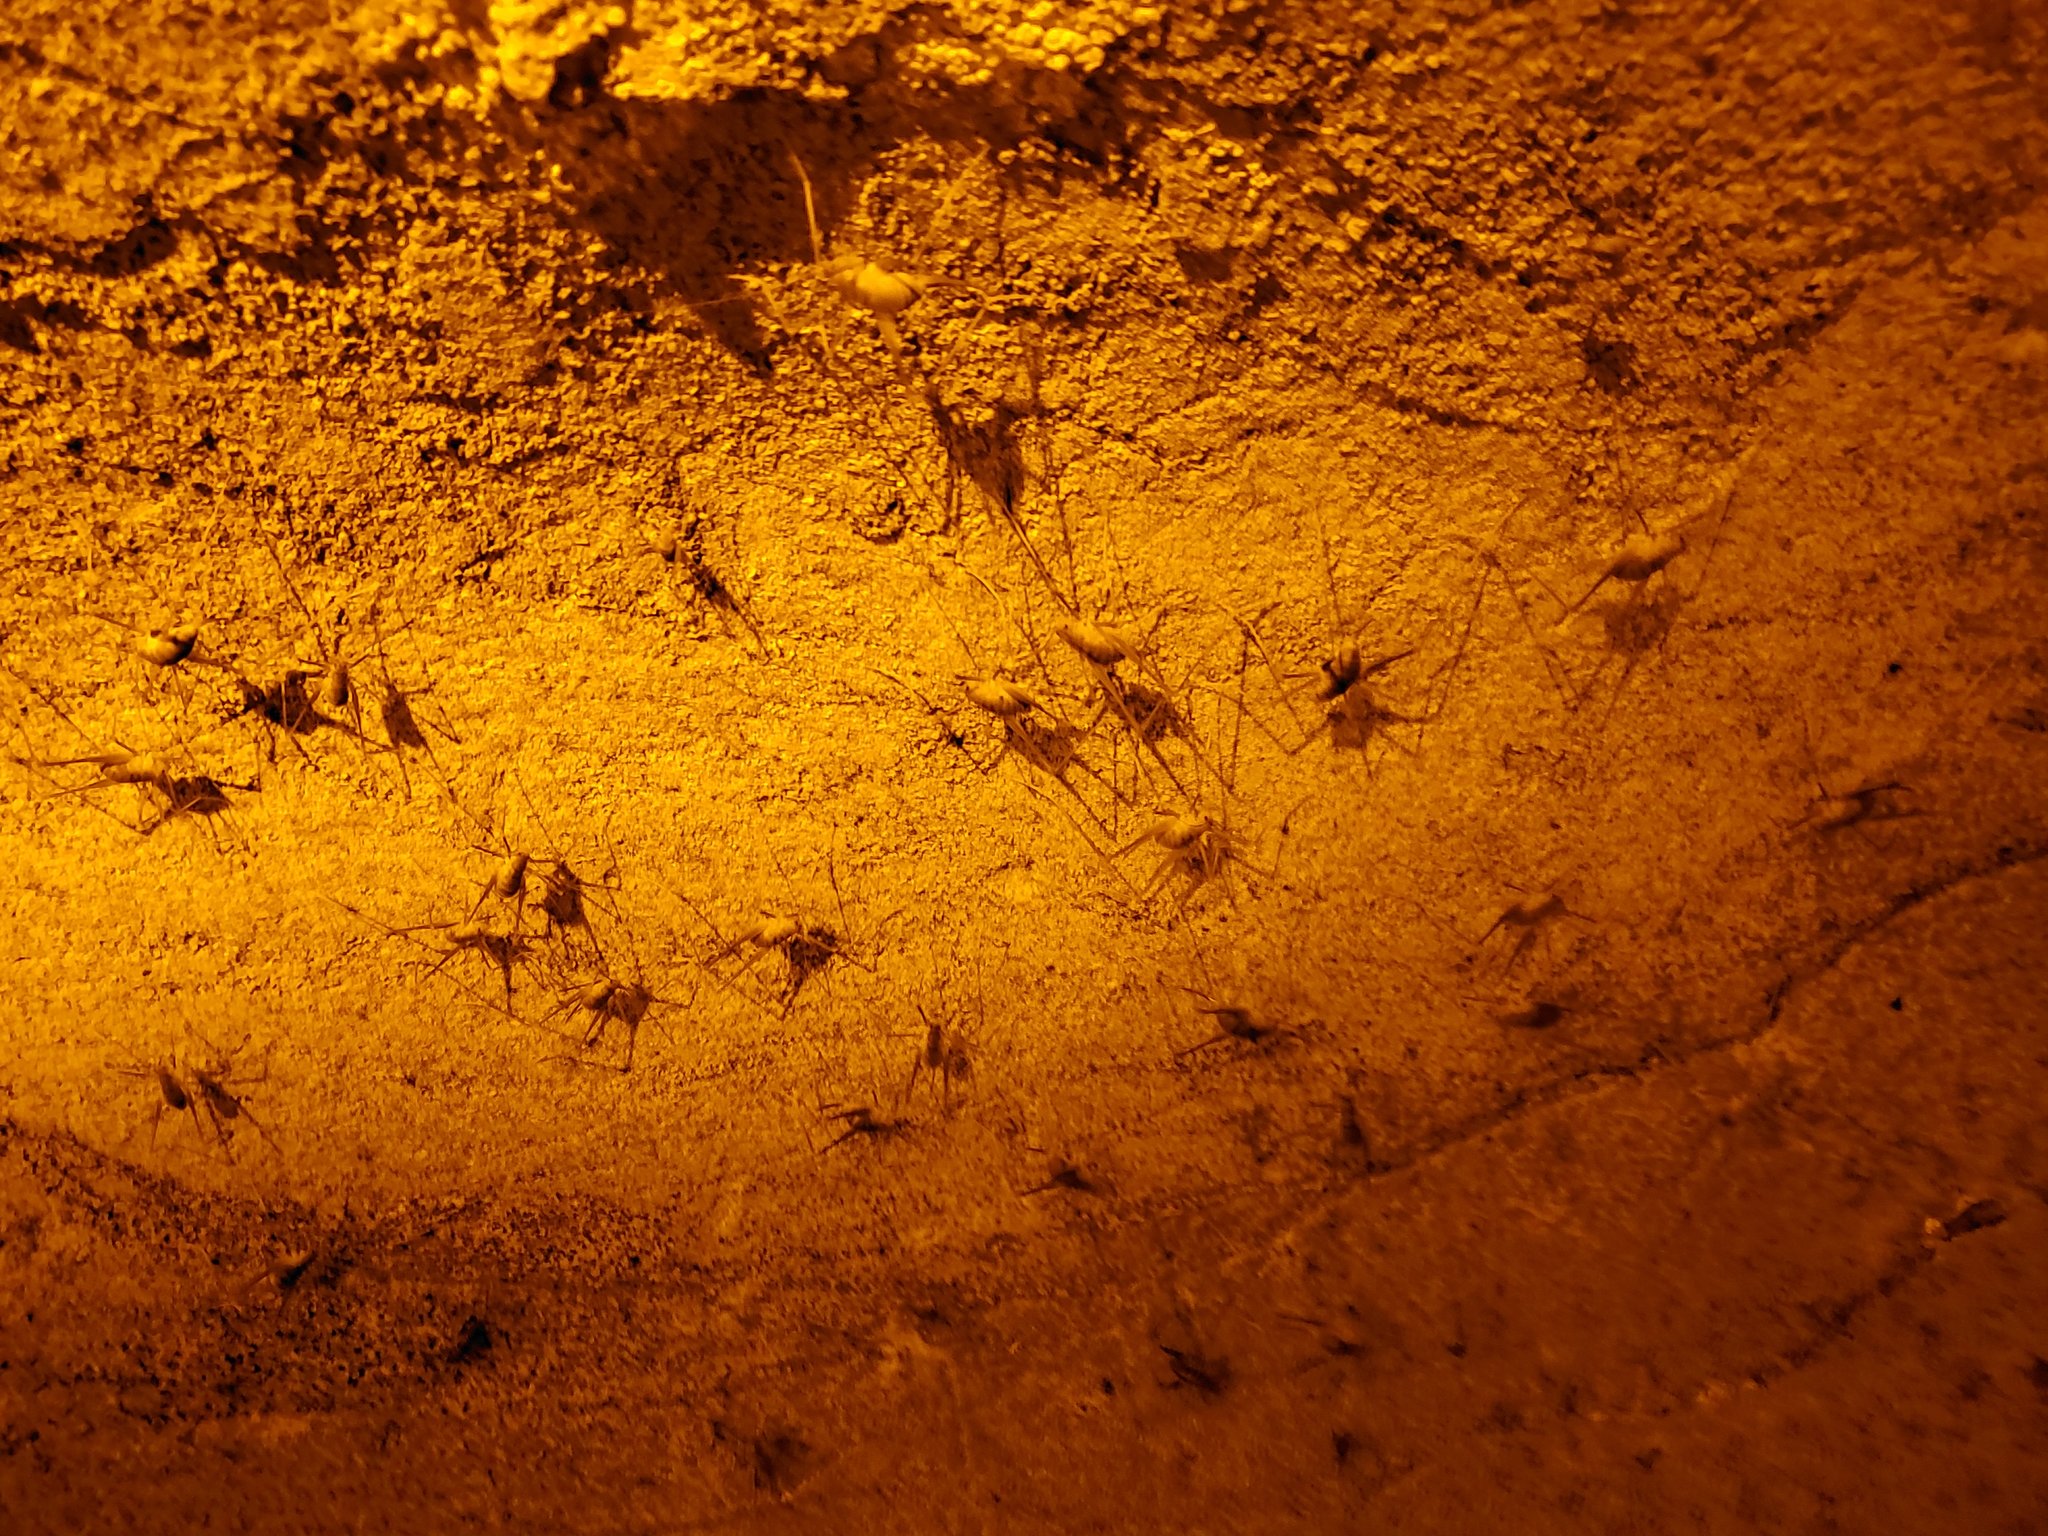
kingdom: Animalia
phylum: Arthropoda
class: Insecta
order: Orthoptera
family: Rhaphidophoridae
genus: Hadenoecus
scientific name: Hadenoecus subterraneus
